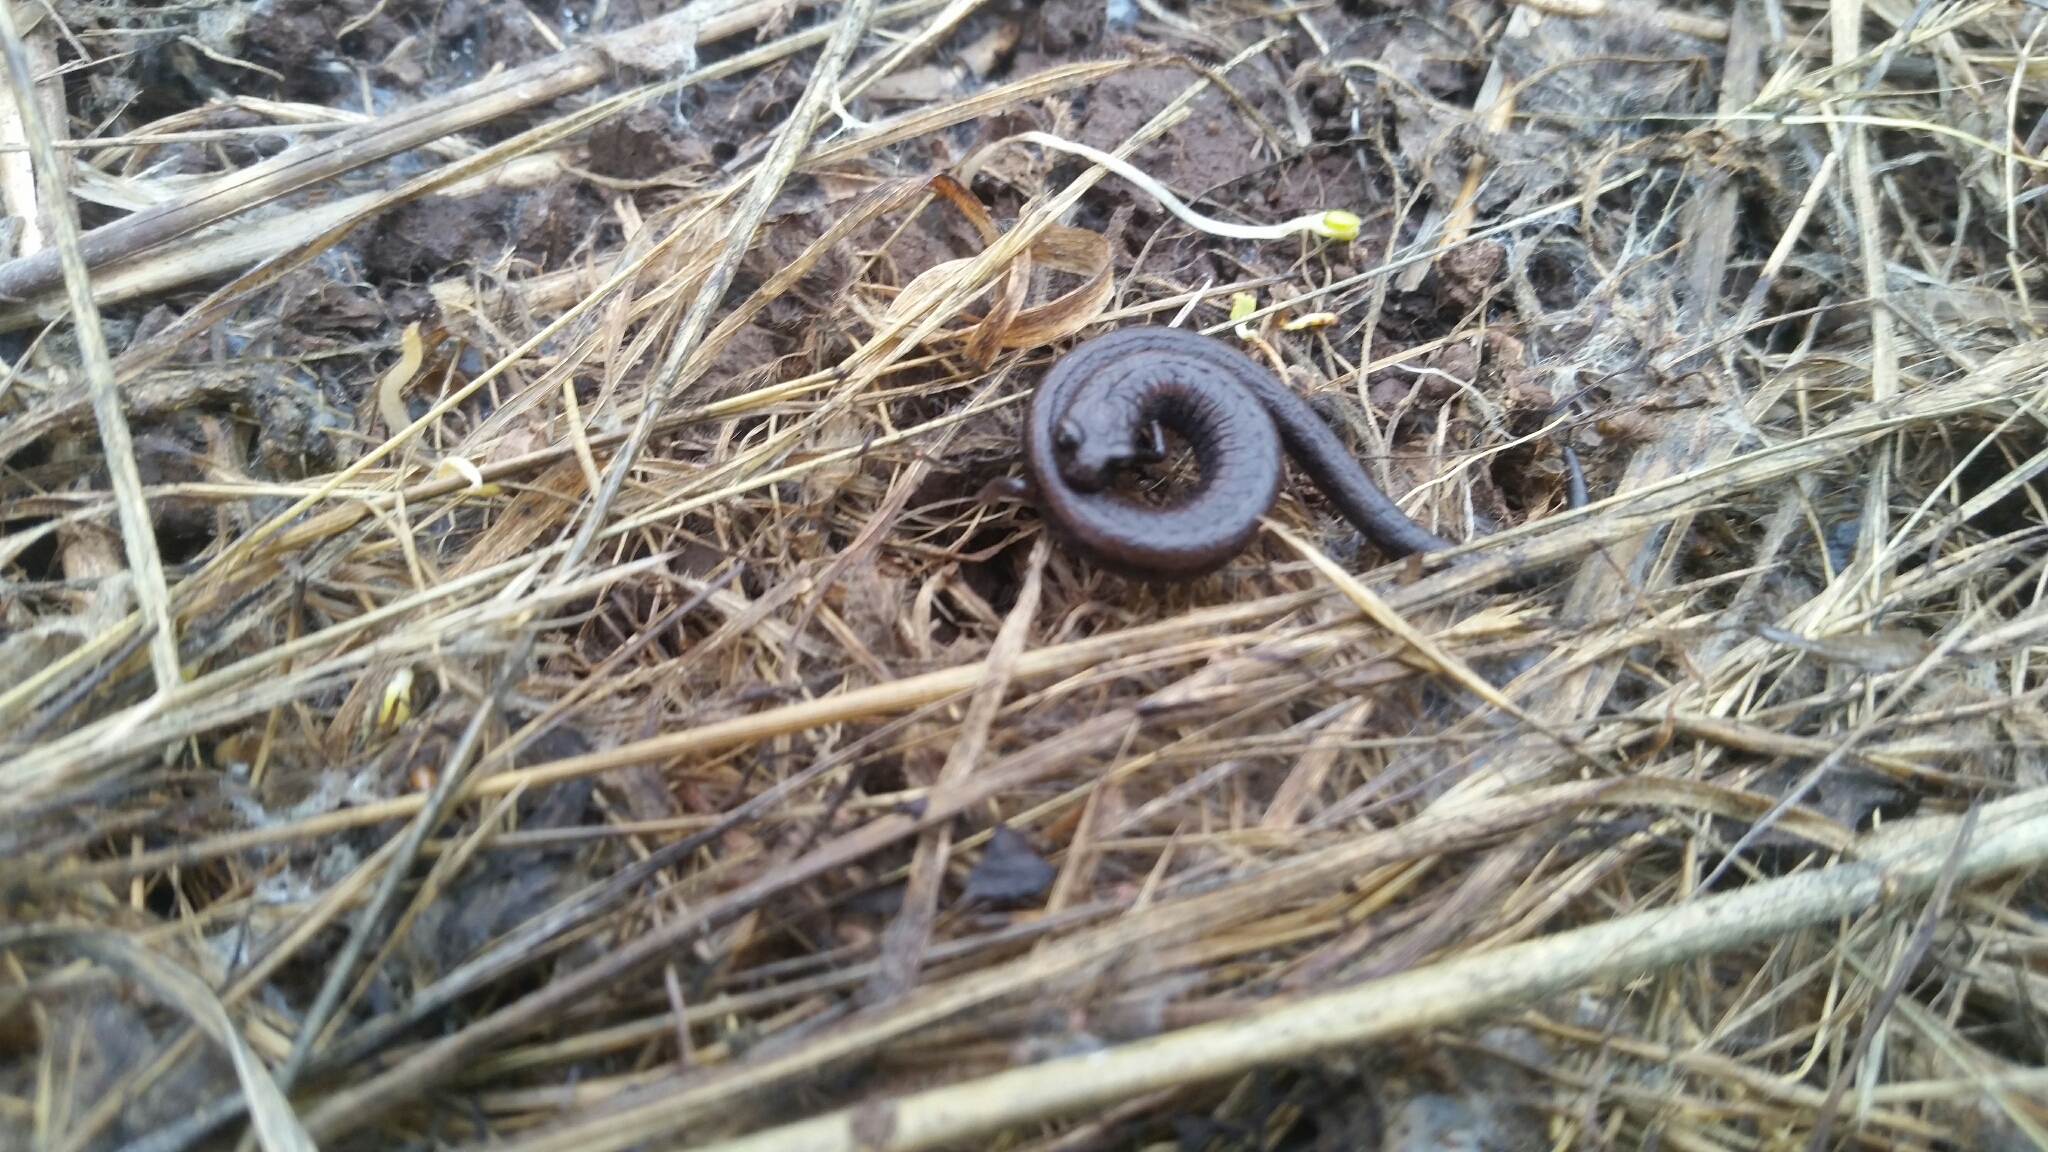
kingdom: Animalia
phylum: Chordata
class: Amphibia
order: Caudata
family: Plethodontidae
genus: Batrachoseps
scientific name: Batrachoseps attenuatus
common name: California slender salamander
